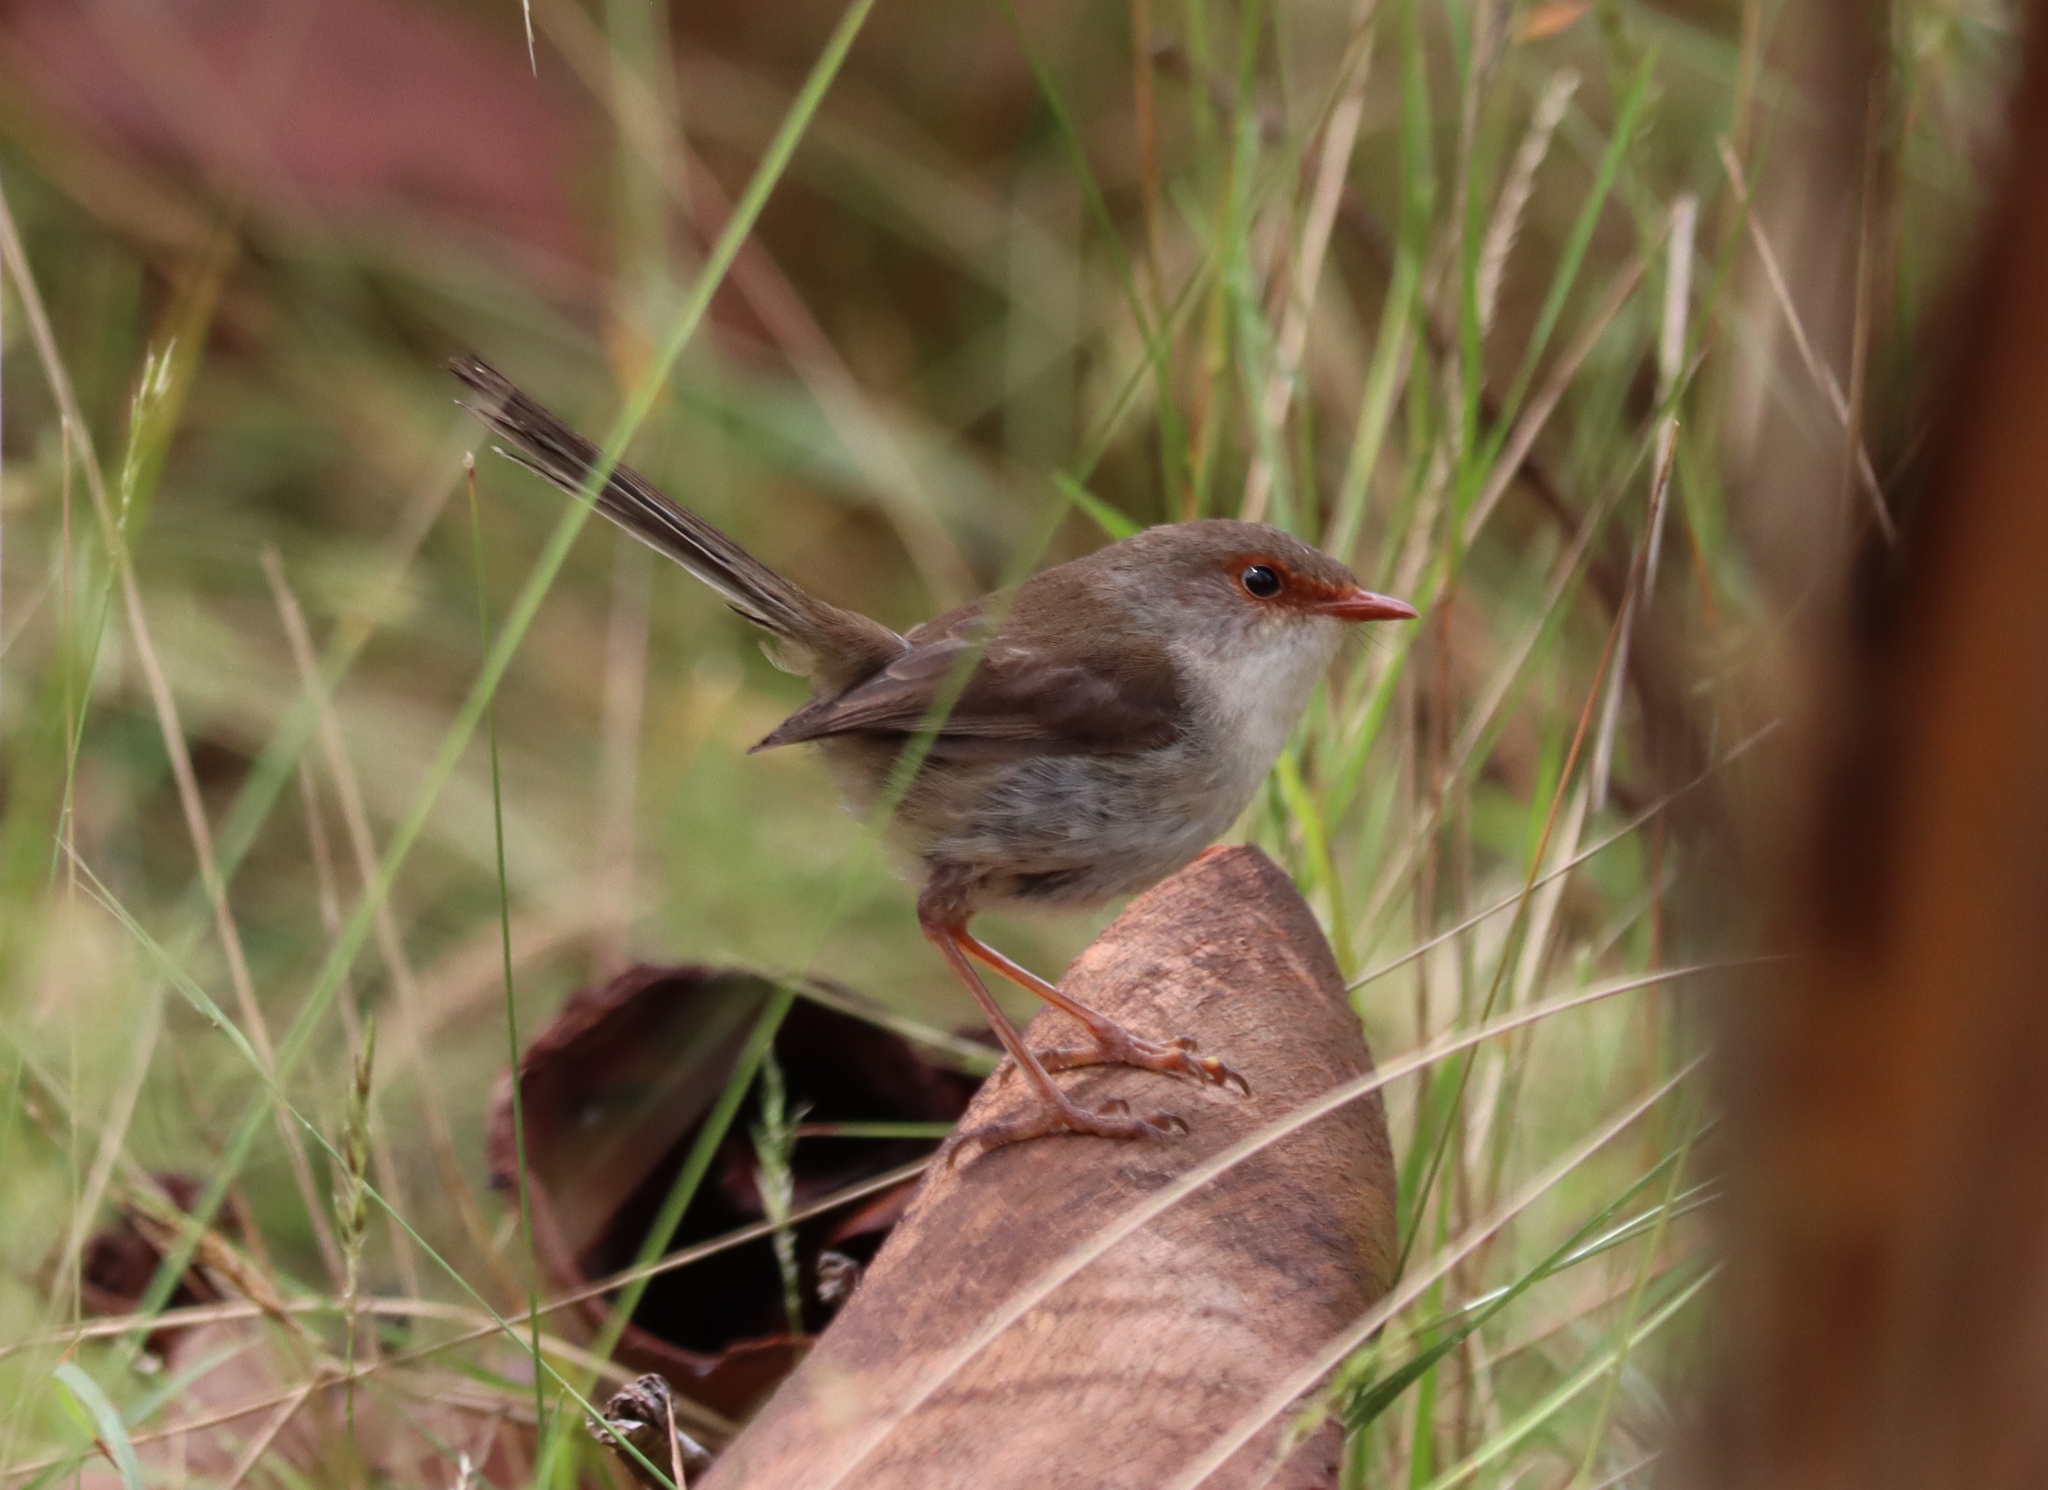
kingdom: Animalia
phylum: Chordata
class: Aves
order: Passeriformes
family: Maluridae
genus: Malurus
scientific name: Malurus cyaneus
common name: Superb fairywren
